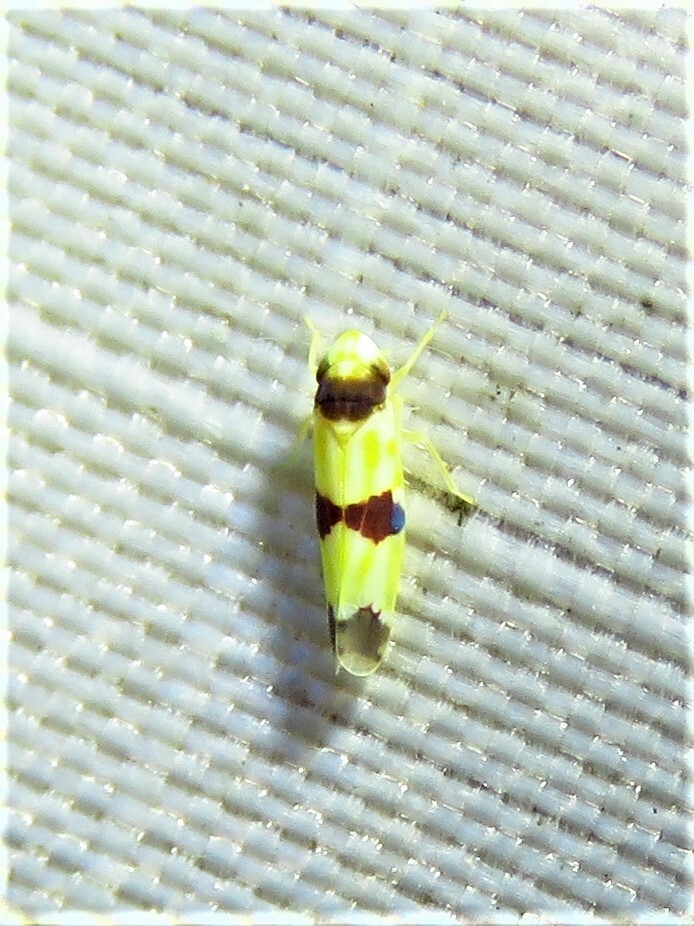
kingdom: Animalia
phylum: Arthropoda
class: Insecta
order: Hemiptera
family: Cicadellidae
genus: Erythroneura
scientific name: Erythroneura tricincta
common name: The threebanded grape leafhopper
